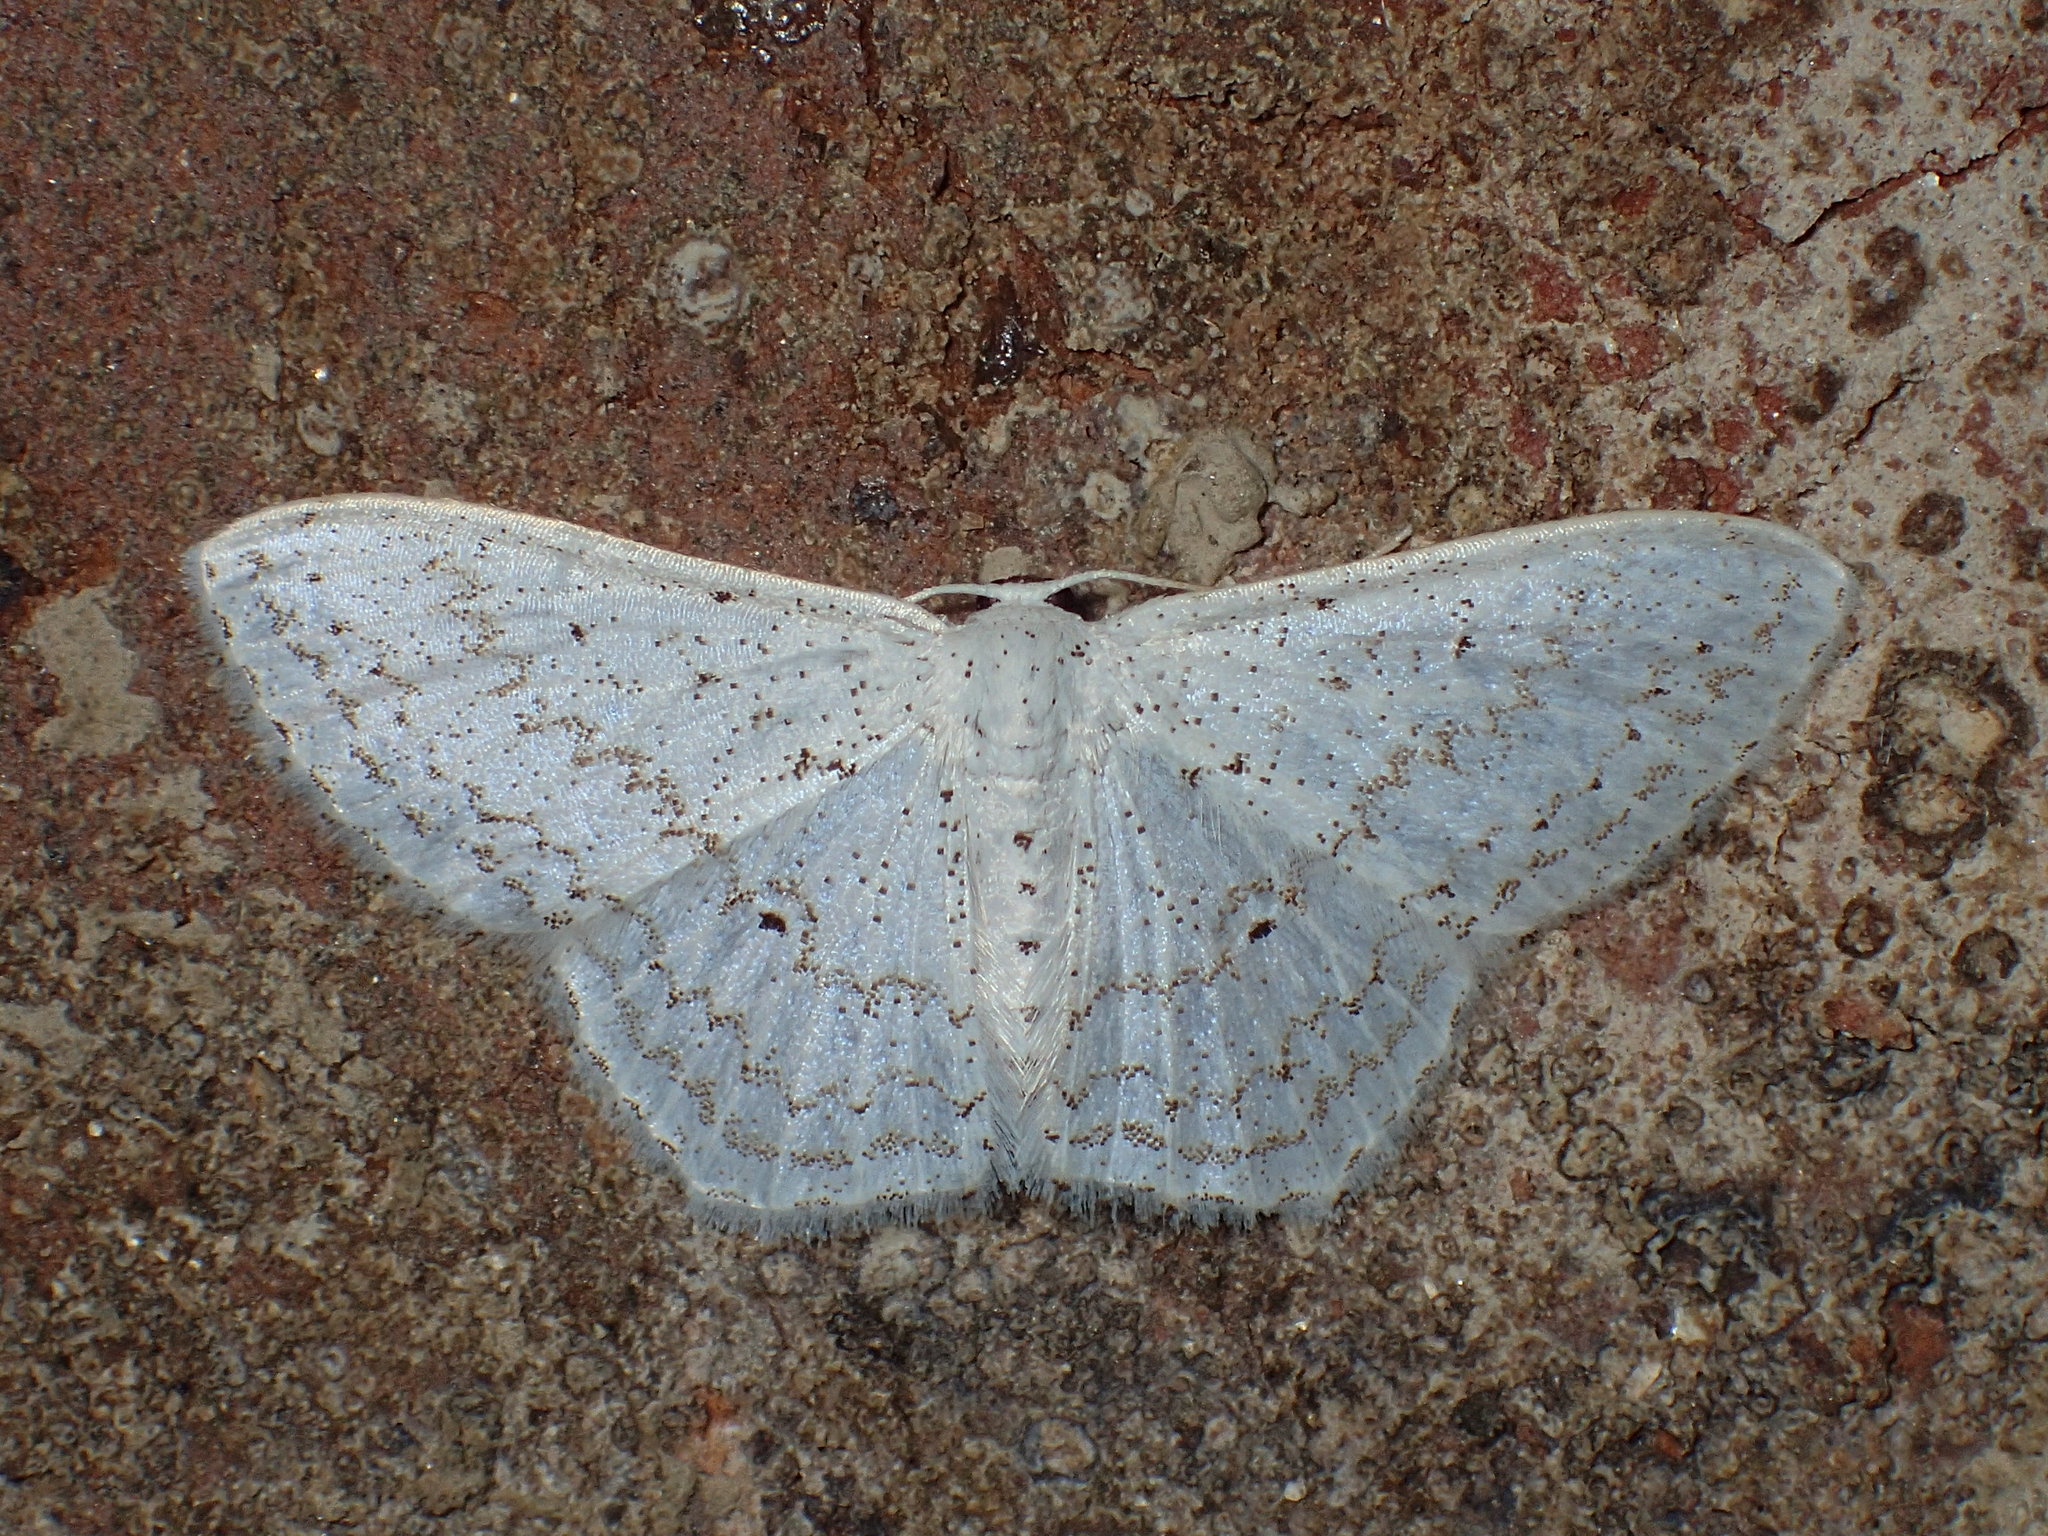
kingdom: Animalia
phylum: Arthropoda
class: Insecta
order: Lepidoptera
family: Geometridae
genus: Idaea
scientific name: Idaea tacturata
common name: Dot-lined wave
